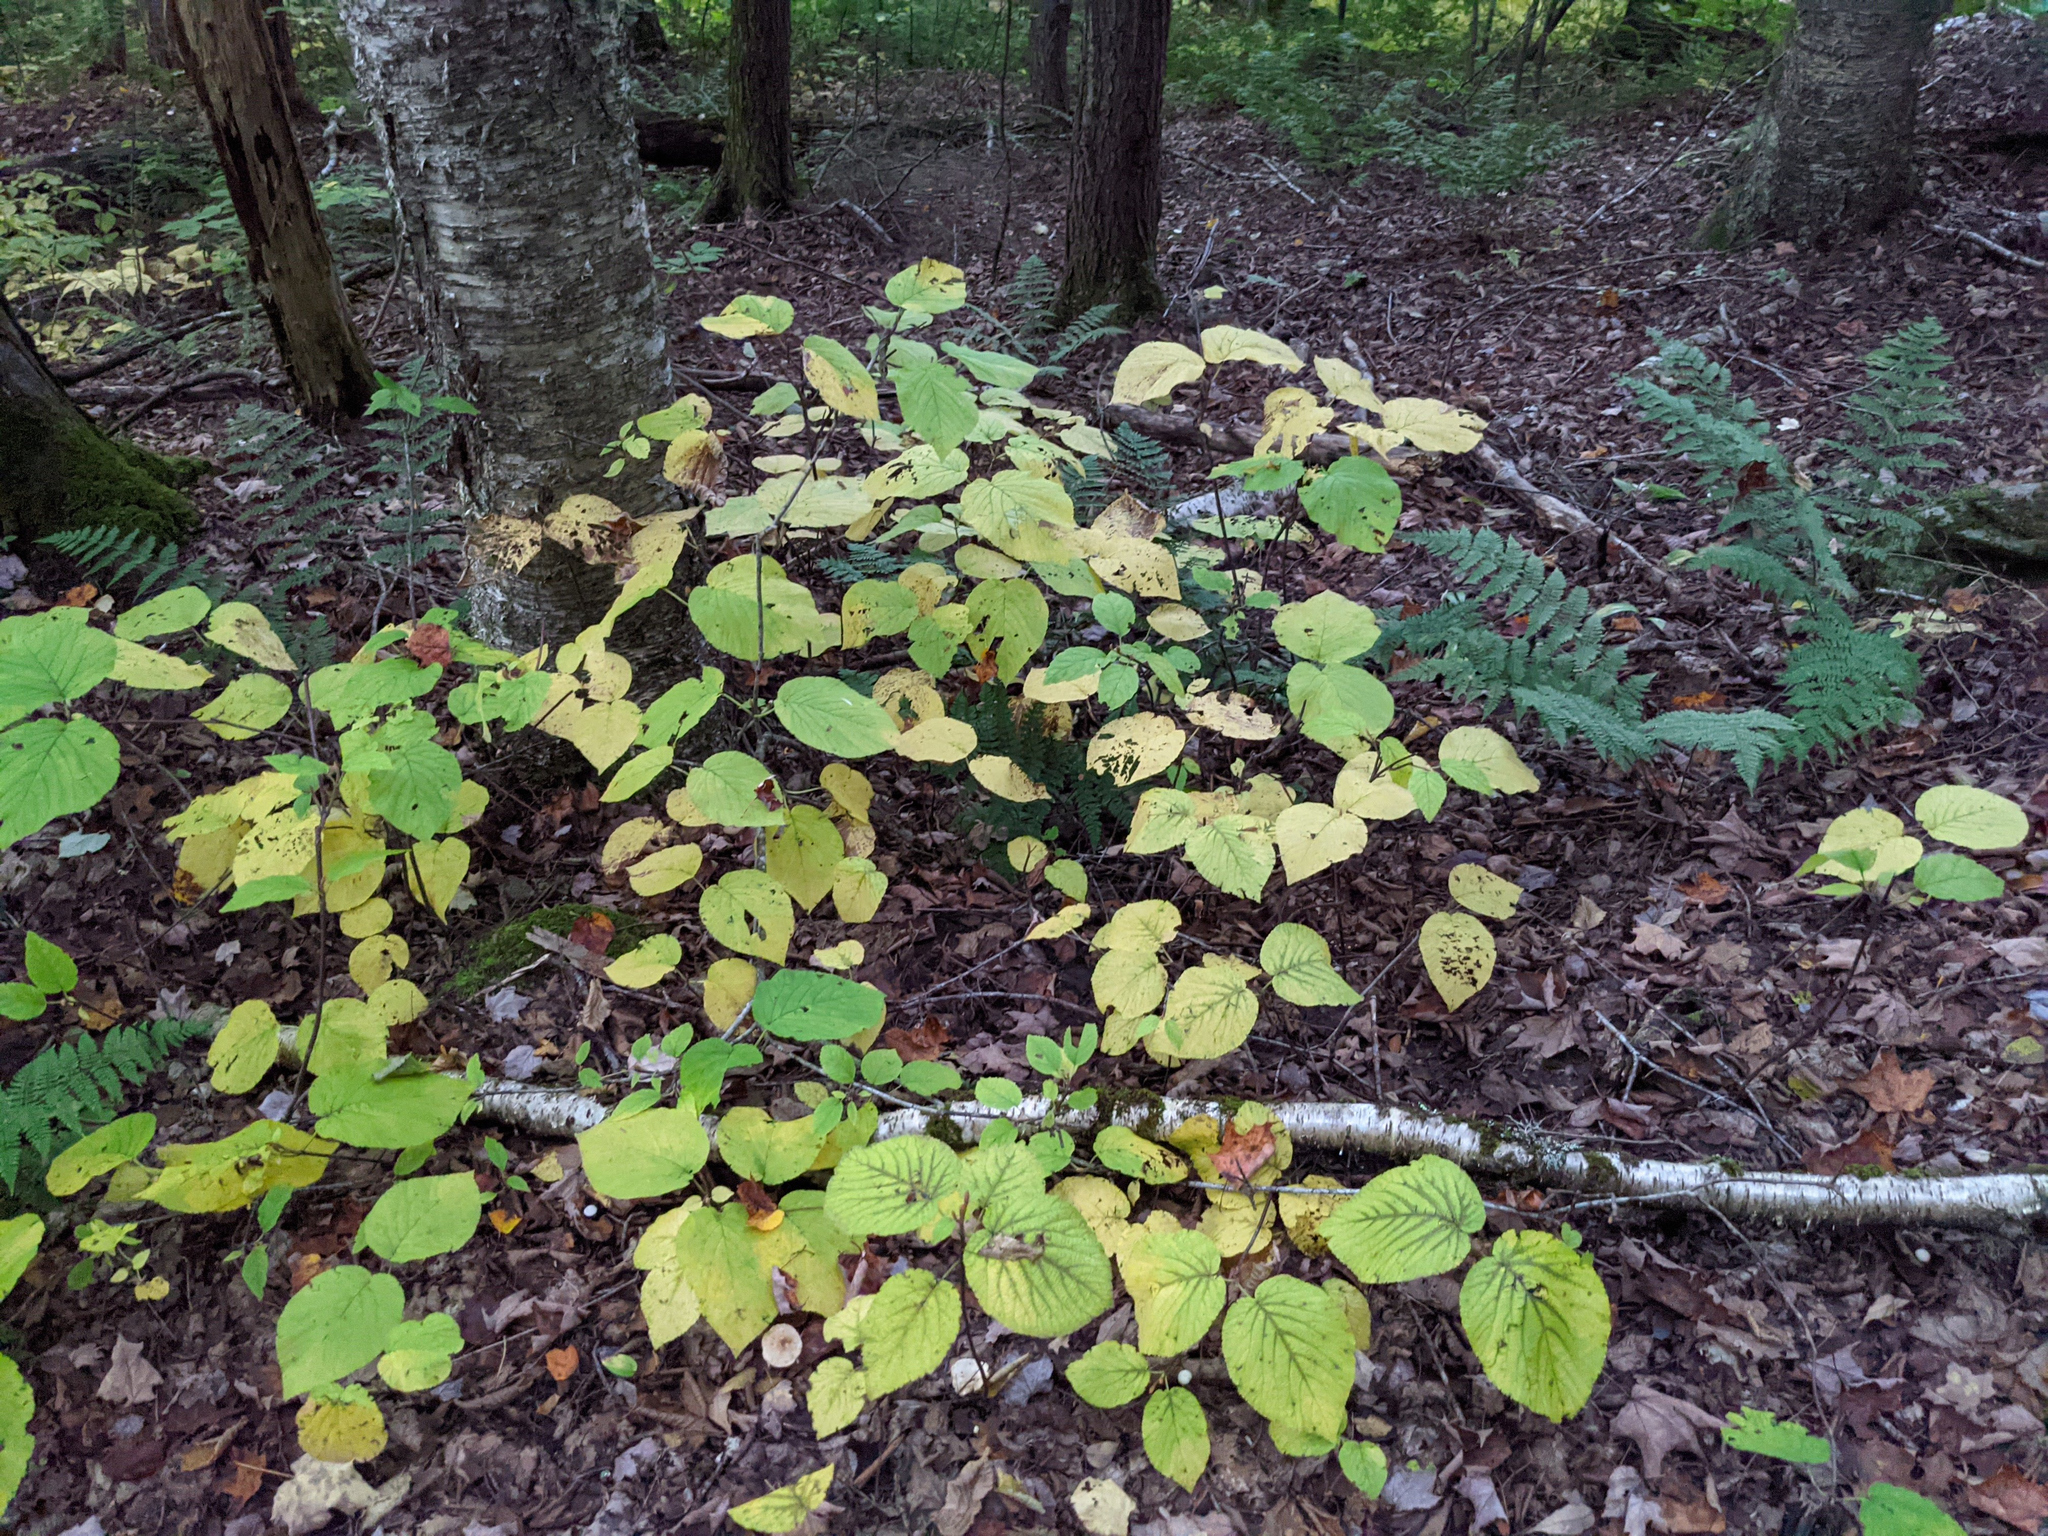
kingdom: Plantae
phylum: Tracheophyta
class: Magnoliopsida
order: Dipsacales
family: Viburnaceae
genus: Viburnum
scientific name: Viburnum lantanoides
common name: Hobblebush
